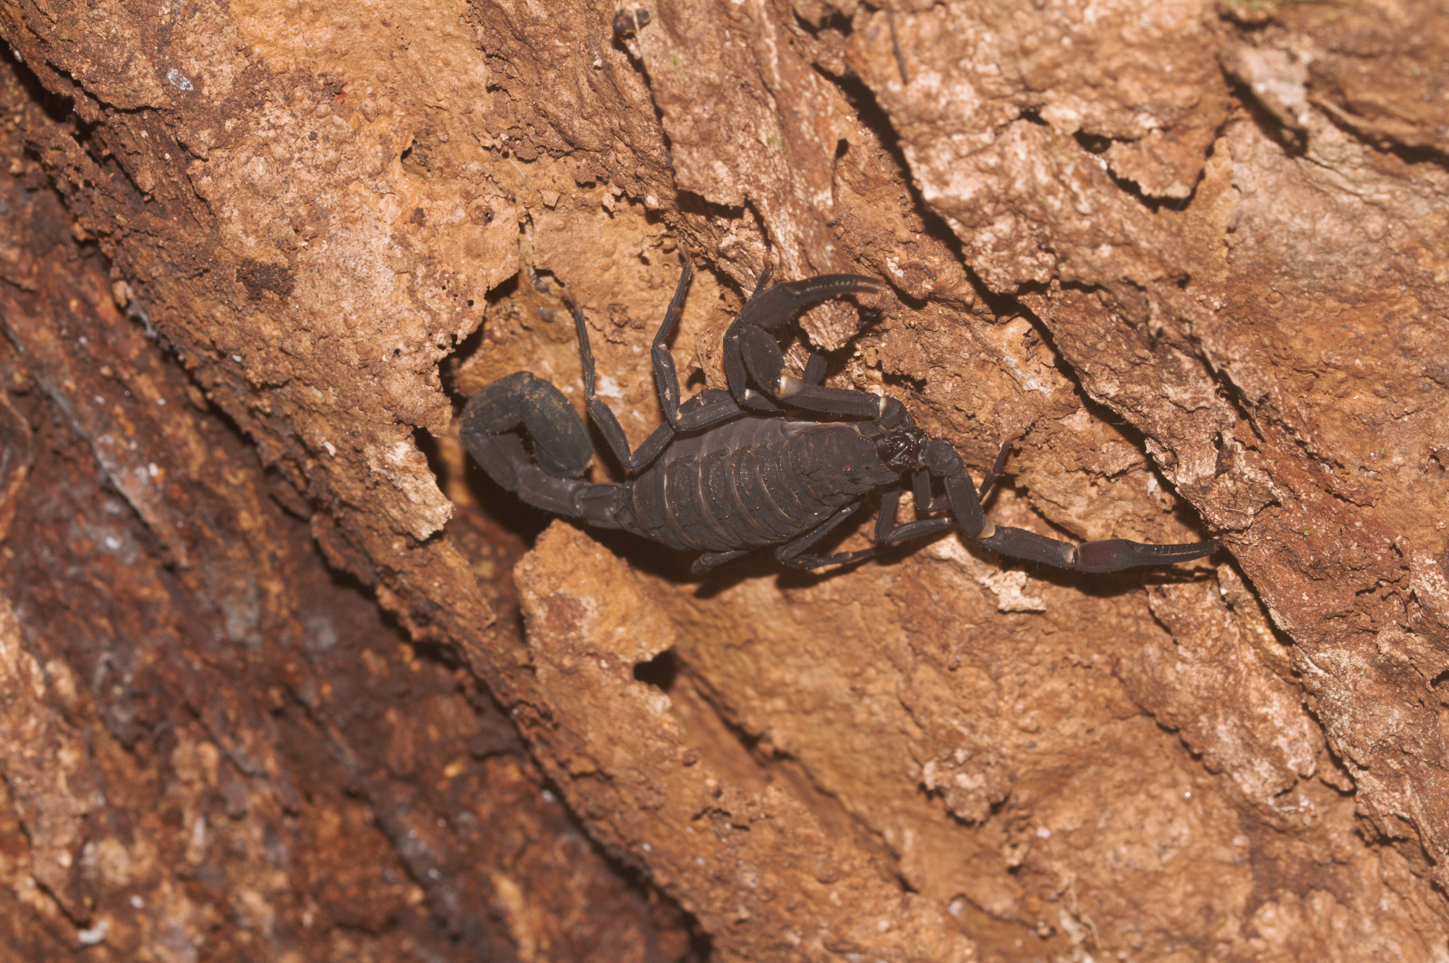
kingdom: Animalia
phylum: Arthropoda
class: Arachnida
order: Scorpiones
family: Buthidae
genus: Tityus
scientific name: Tityus obscurus
